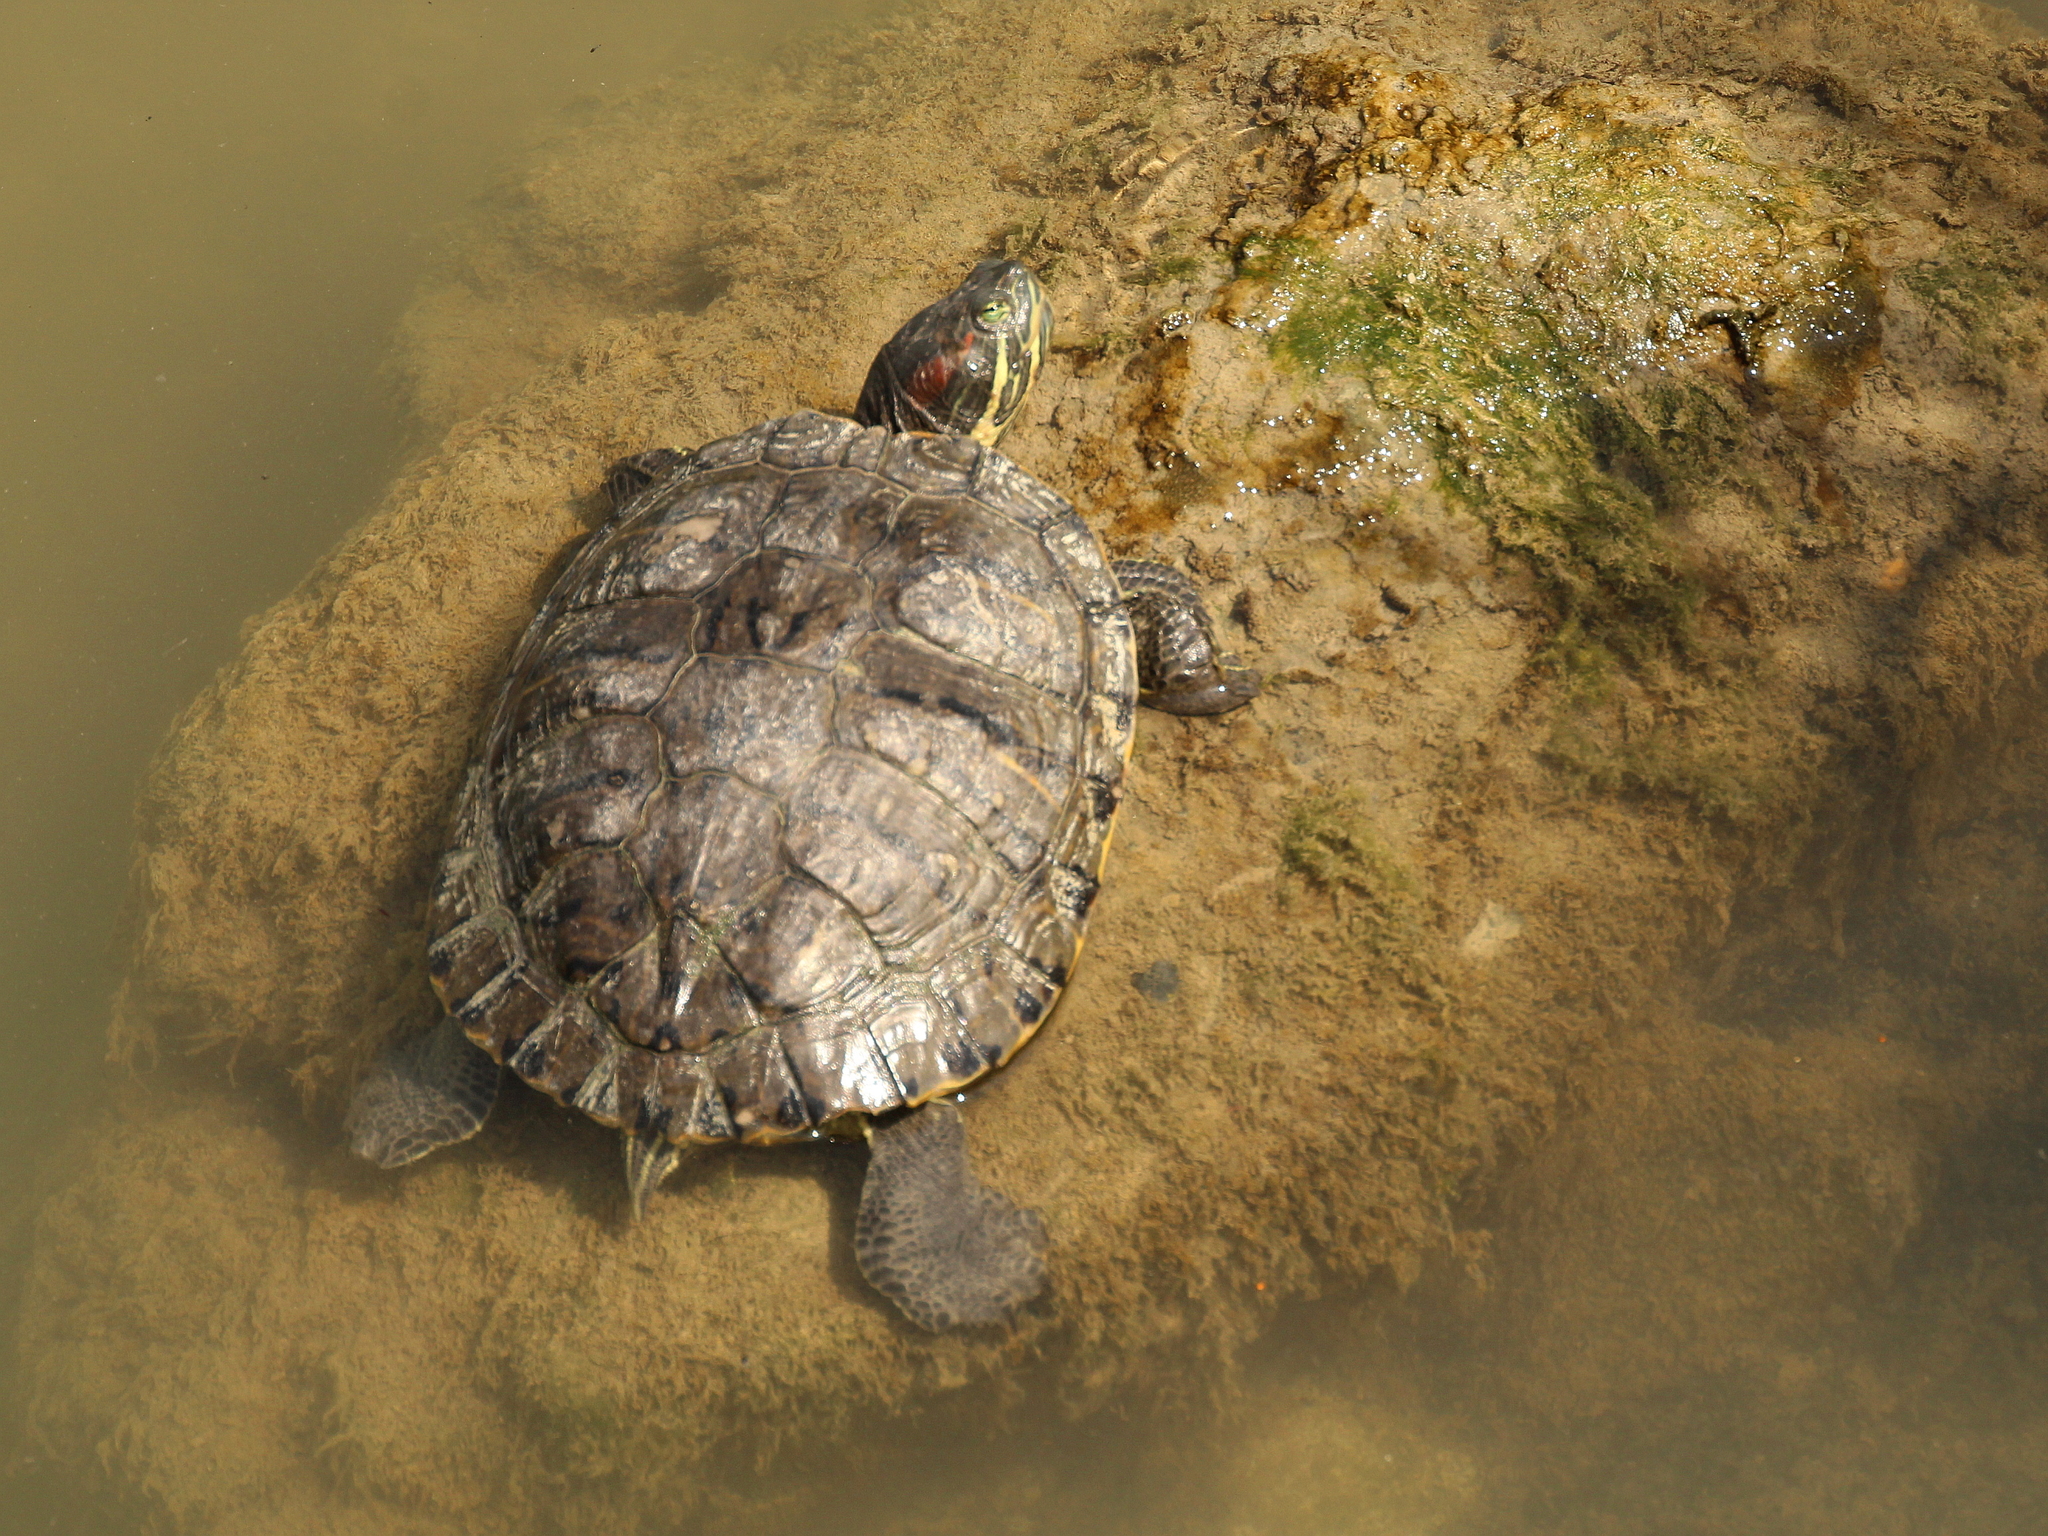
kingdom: Animalia
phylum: Chordata
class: Testudines
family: Emydidae
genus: Trachemys
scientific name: Trachemys scripta
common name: Slider
